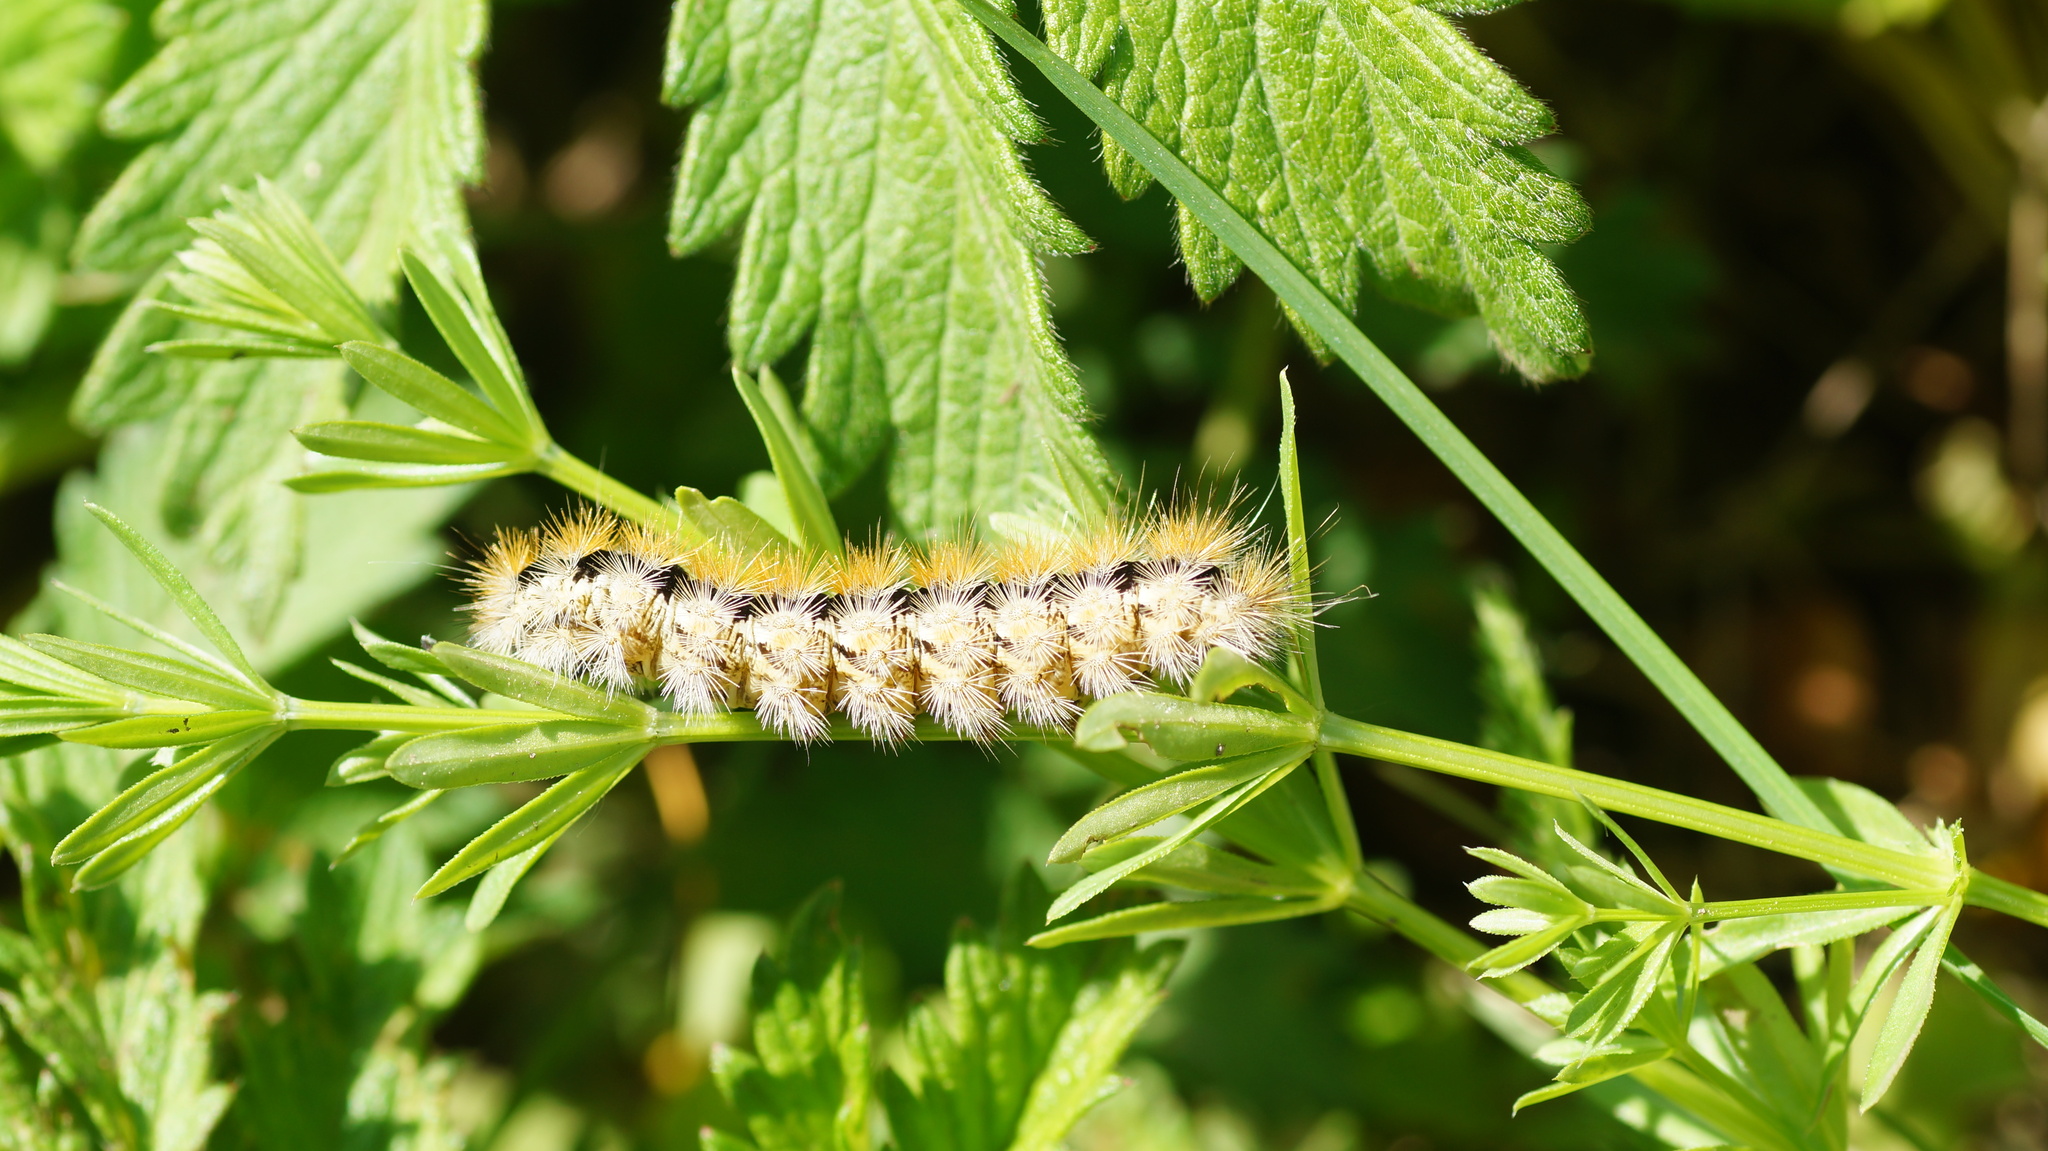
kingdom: Animalia
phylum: Arthropoda
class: Insecta
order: Lepidoptera
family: Erebidae
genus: Rhyparia
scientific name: Rhyparia purpurata
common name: Purple tiger
